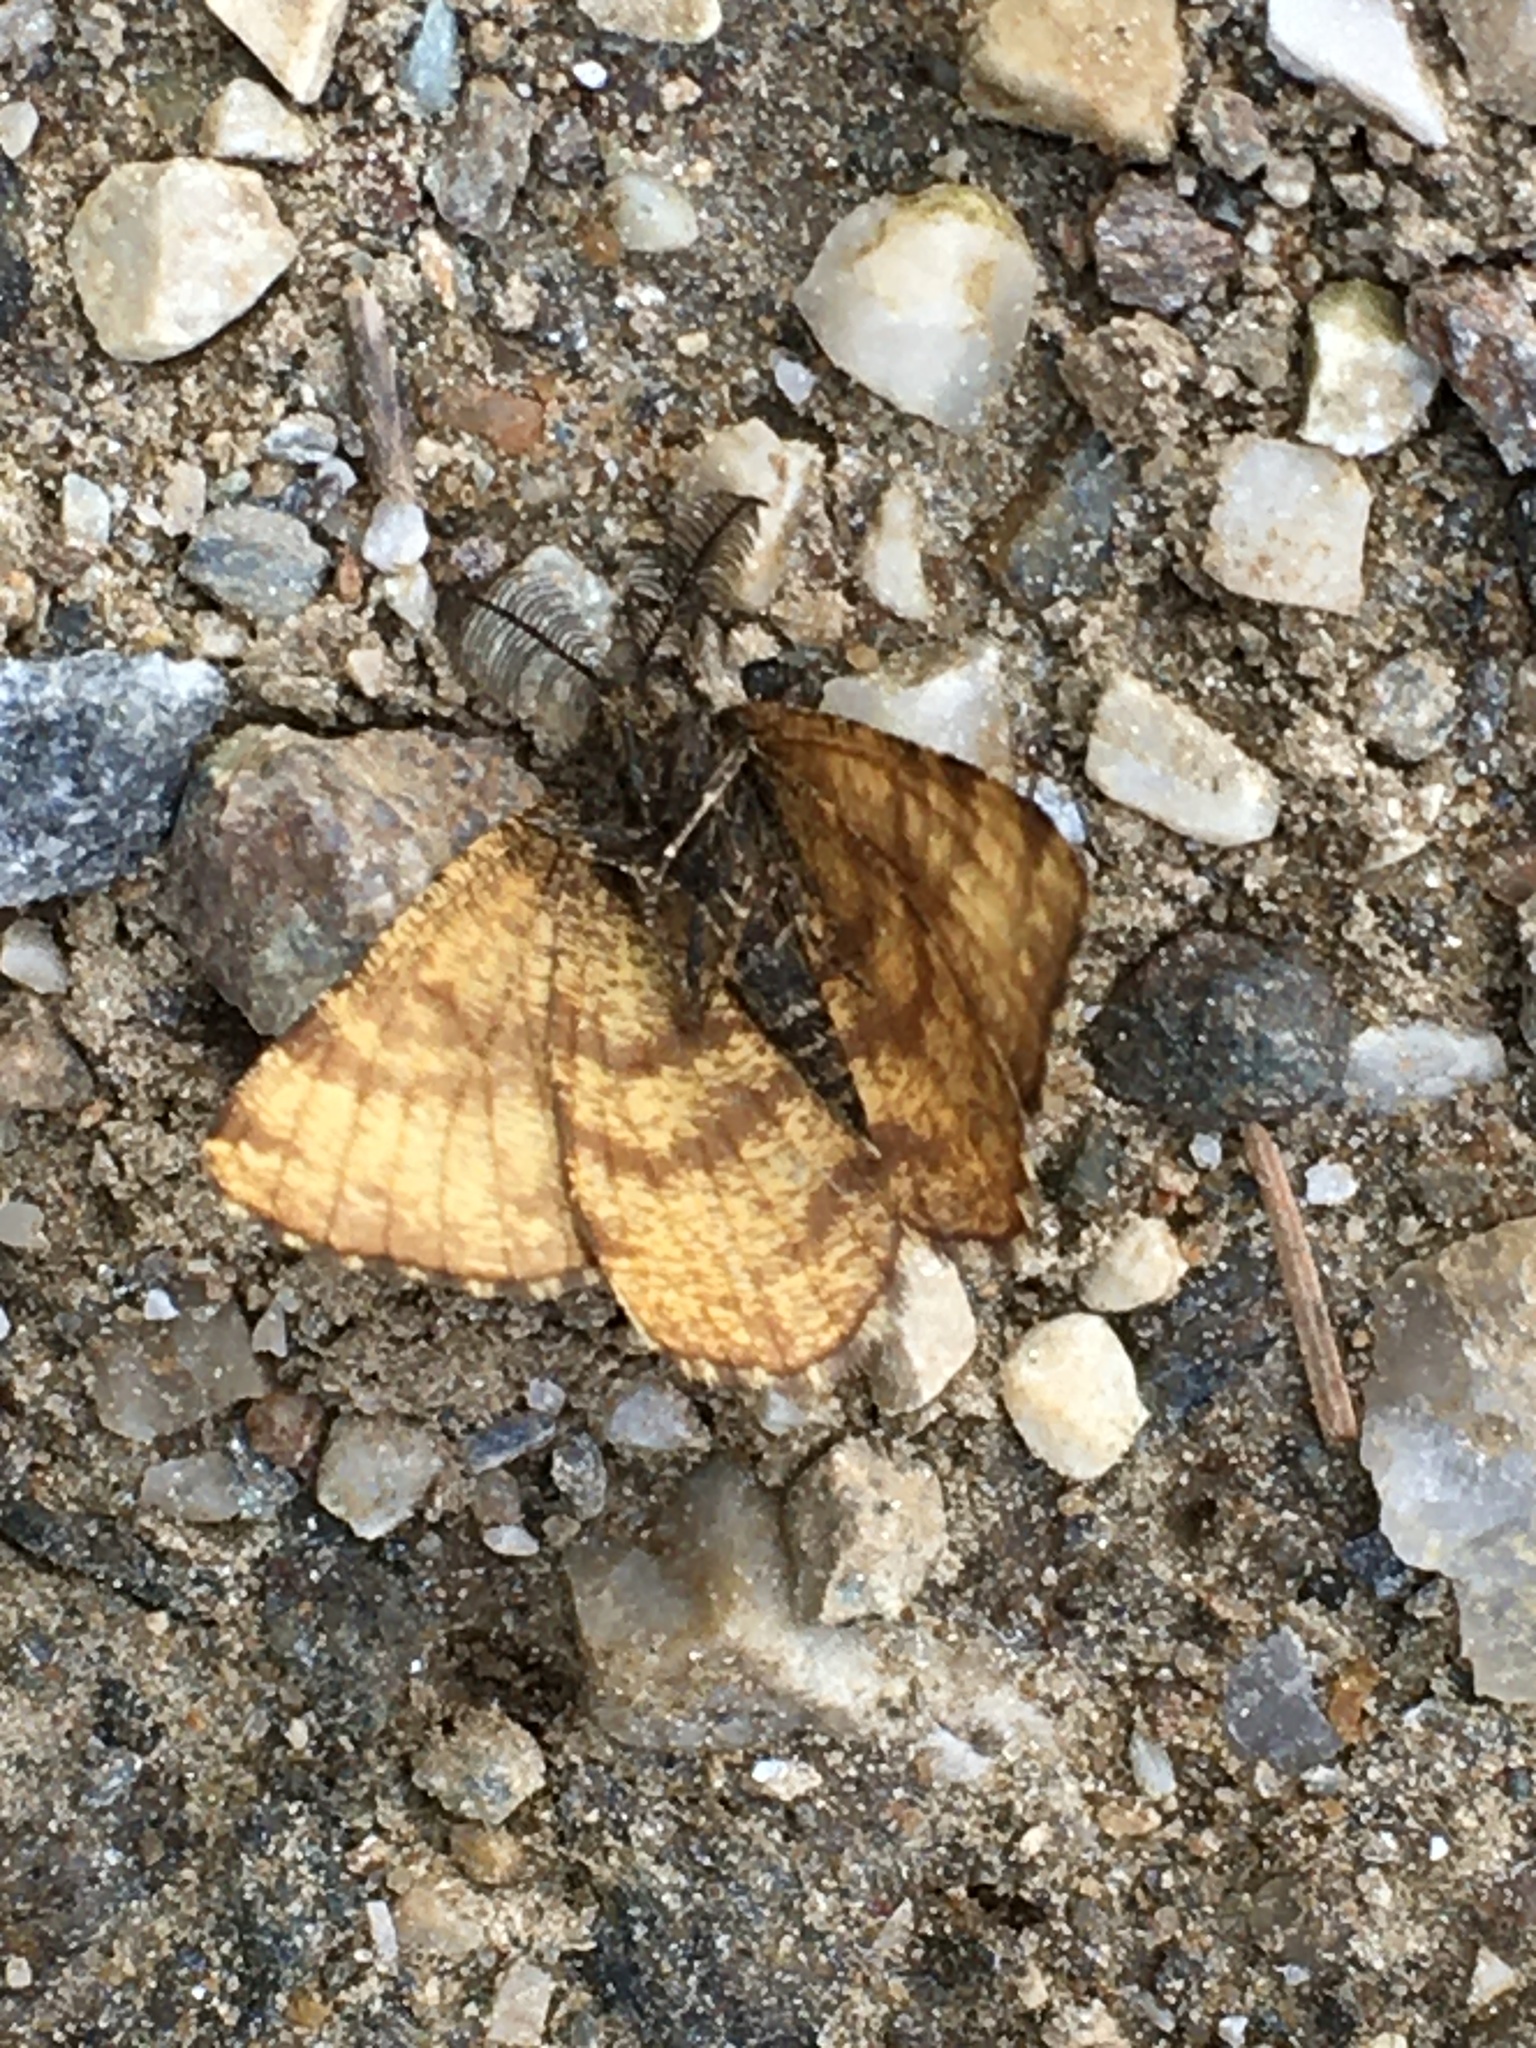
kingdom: Animalia
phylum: Arthropoda
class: Insecta
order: Lepidoptera
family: Geometridae
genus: Ematurga
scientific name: Ematurga atomaria
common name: Common heath
